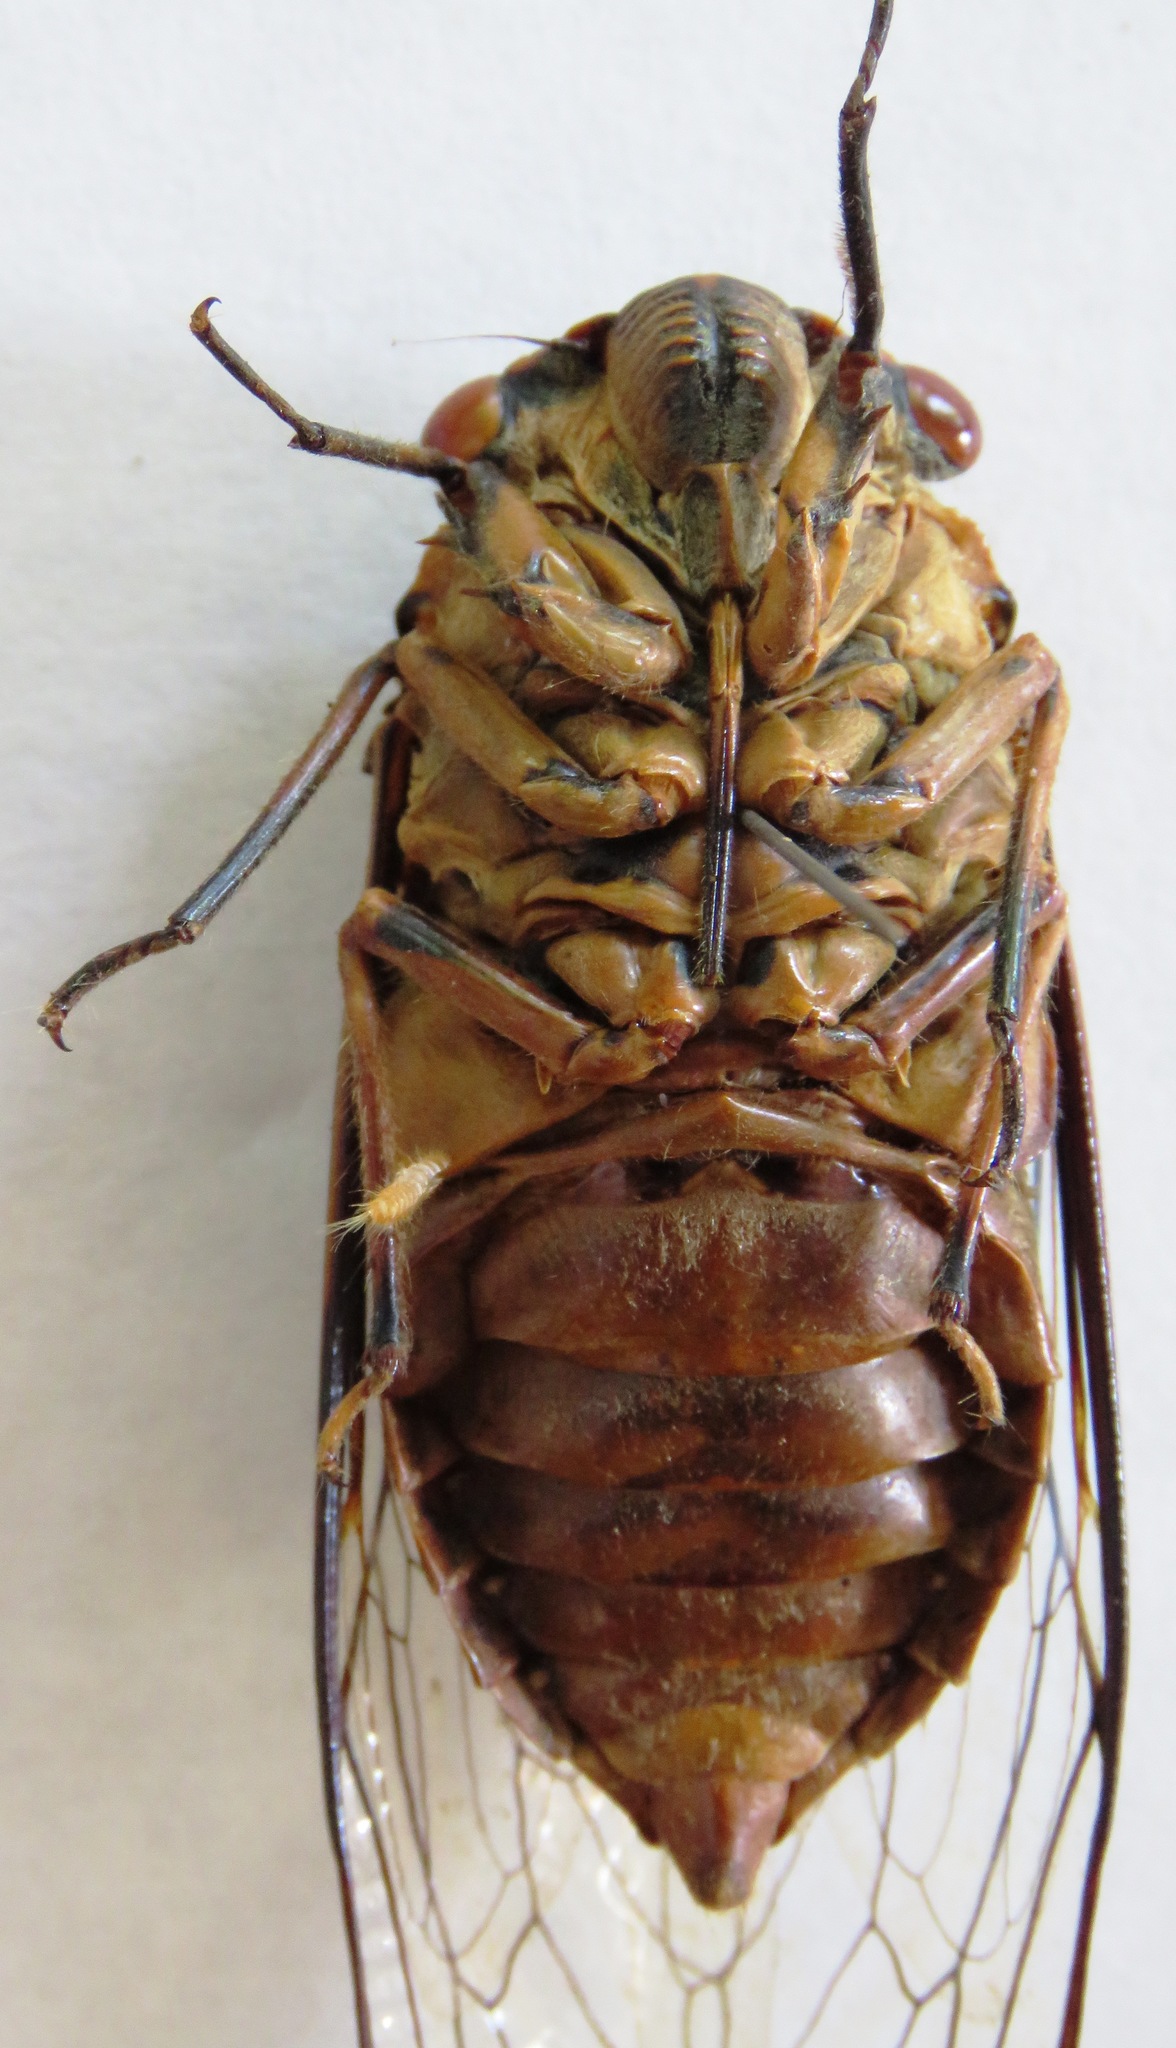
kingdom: Animalia
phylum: Arthropoda
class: Insecta
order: Hemiptera
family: Cicadidae
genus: Quesada
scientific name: Quesada gigas
